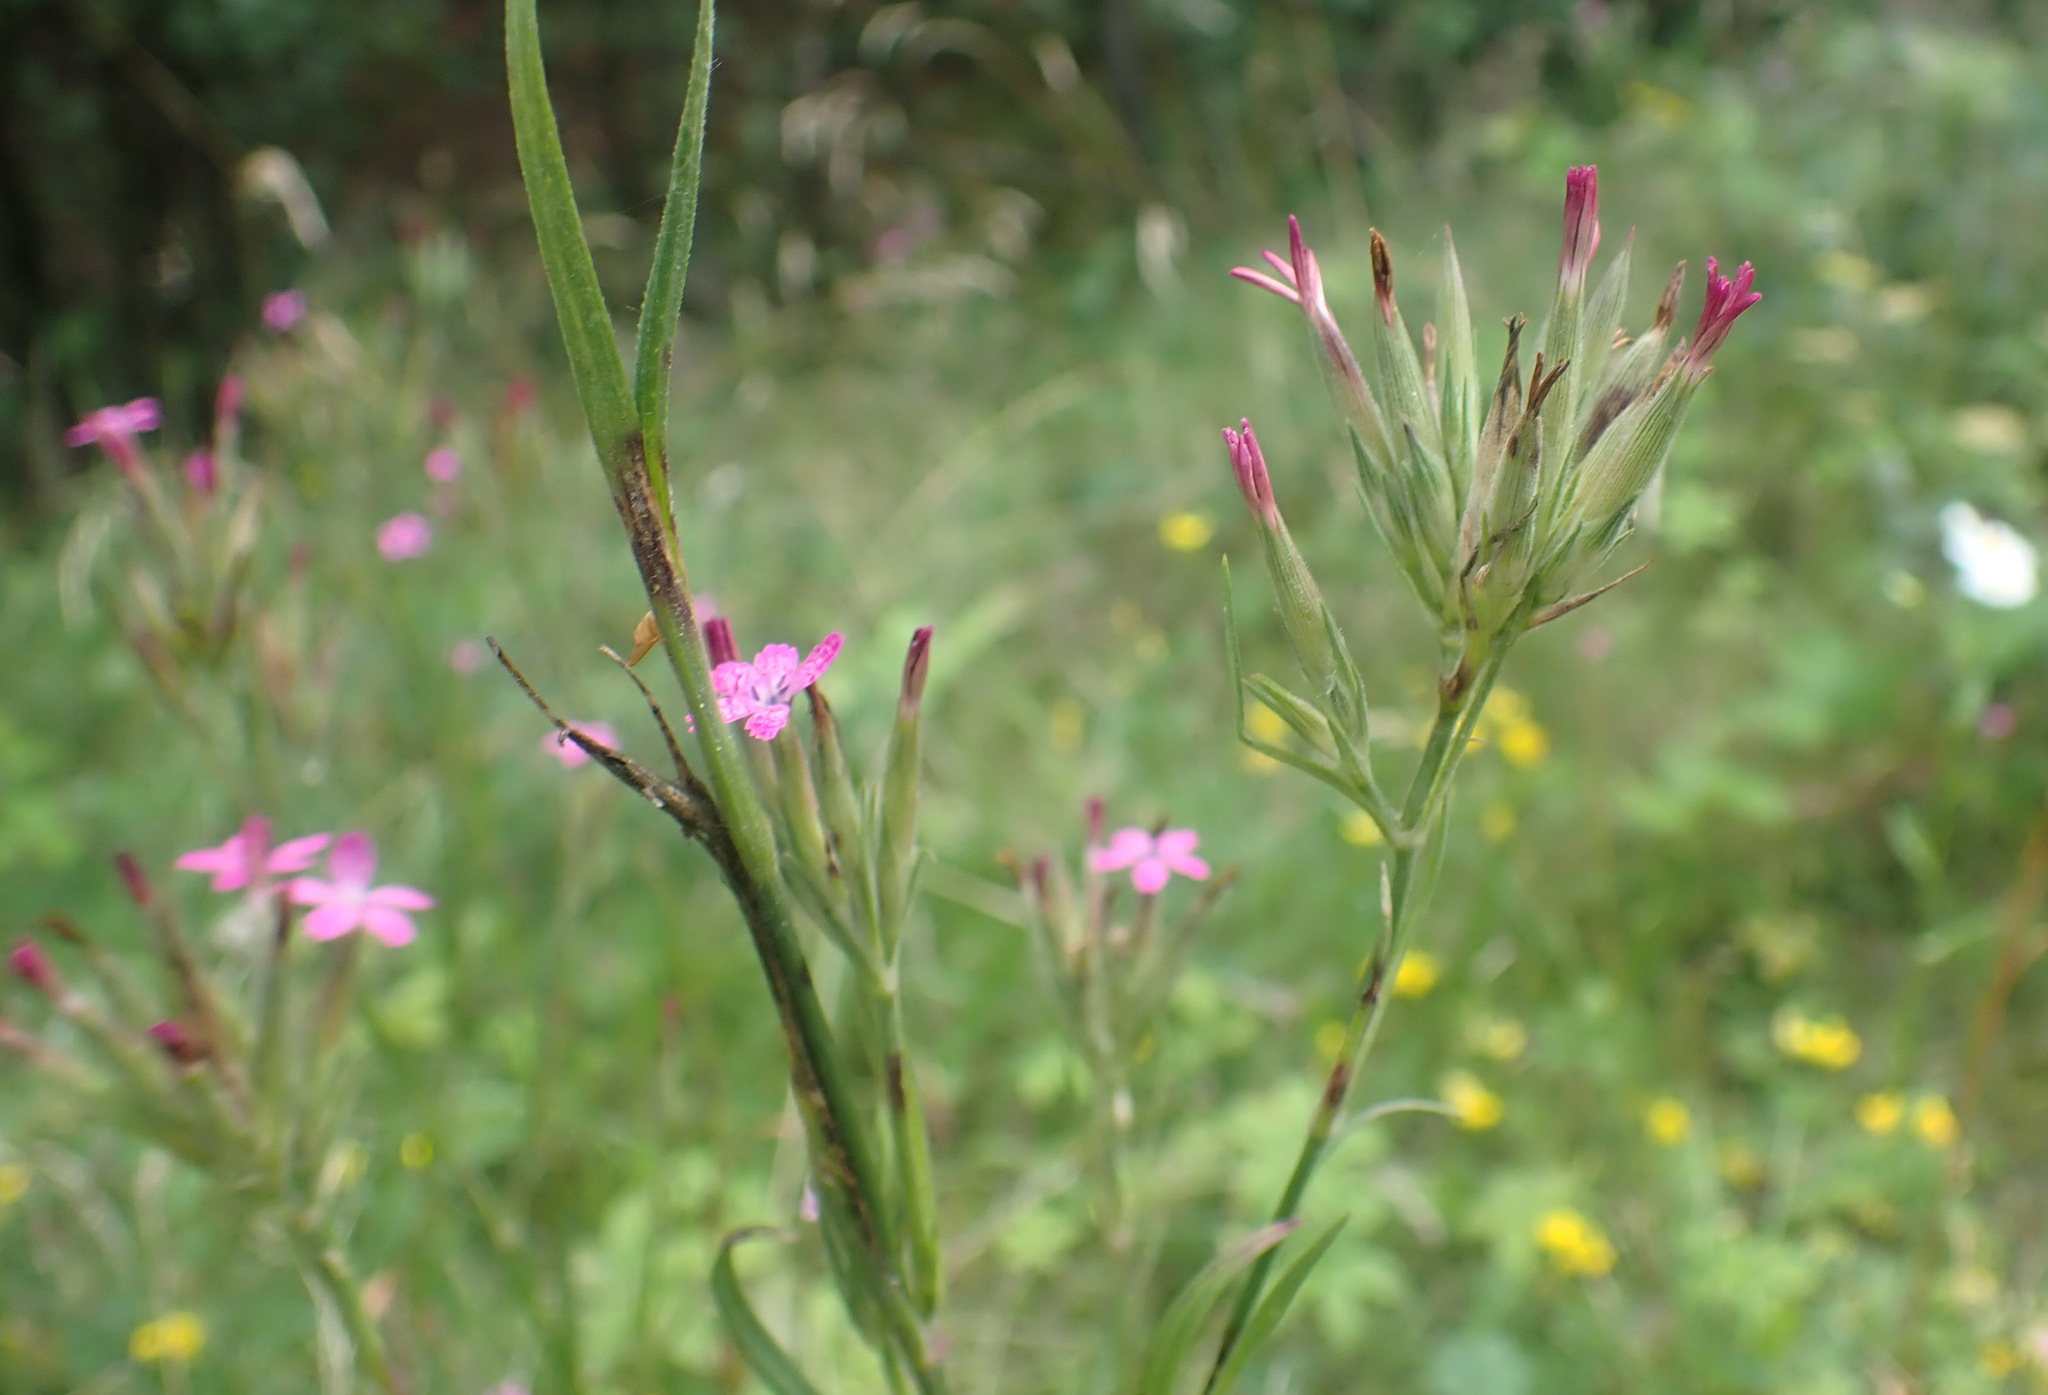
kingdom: Plantae
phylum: Tracheophyta
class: Magnoliopsida
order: Caryophyllales
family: Caryophyllaceae
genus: Dianthus
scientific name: Dianthus armeria
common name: Deptford pink
